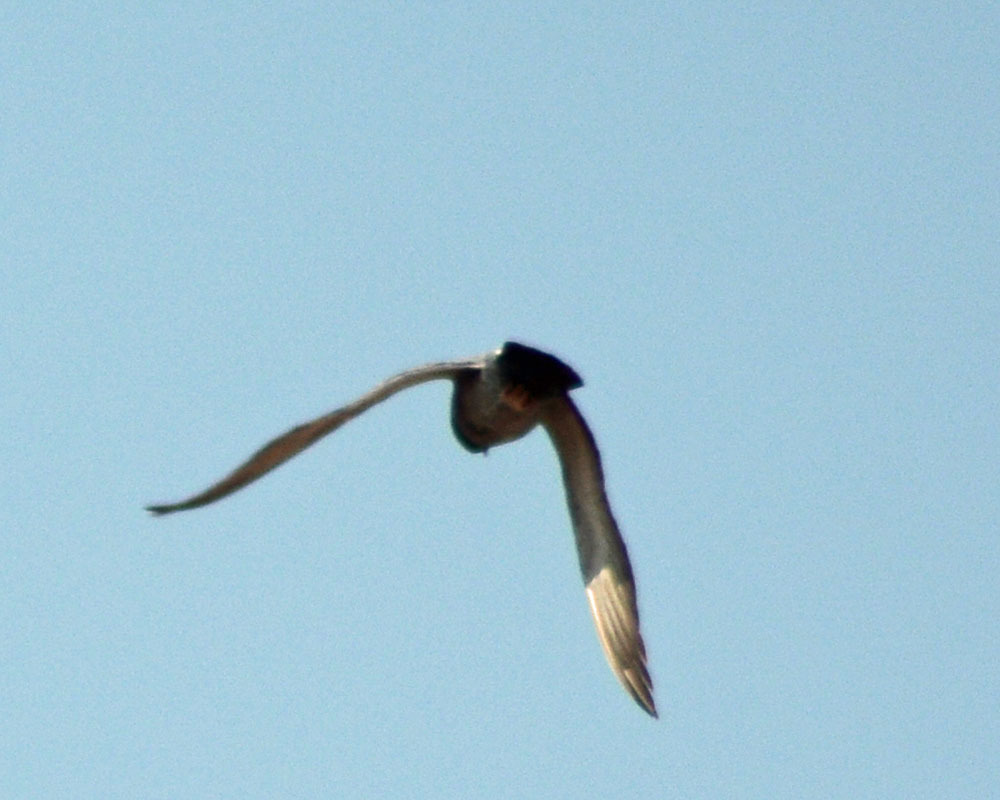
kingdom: Animalia
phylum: Chordata
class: Aves
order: Columbiformes
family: Columbidae
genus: Columba
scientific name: Columba livia
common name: Rock pigeon
